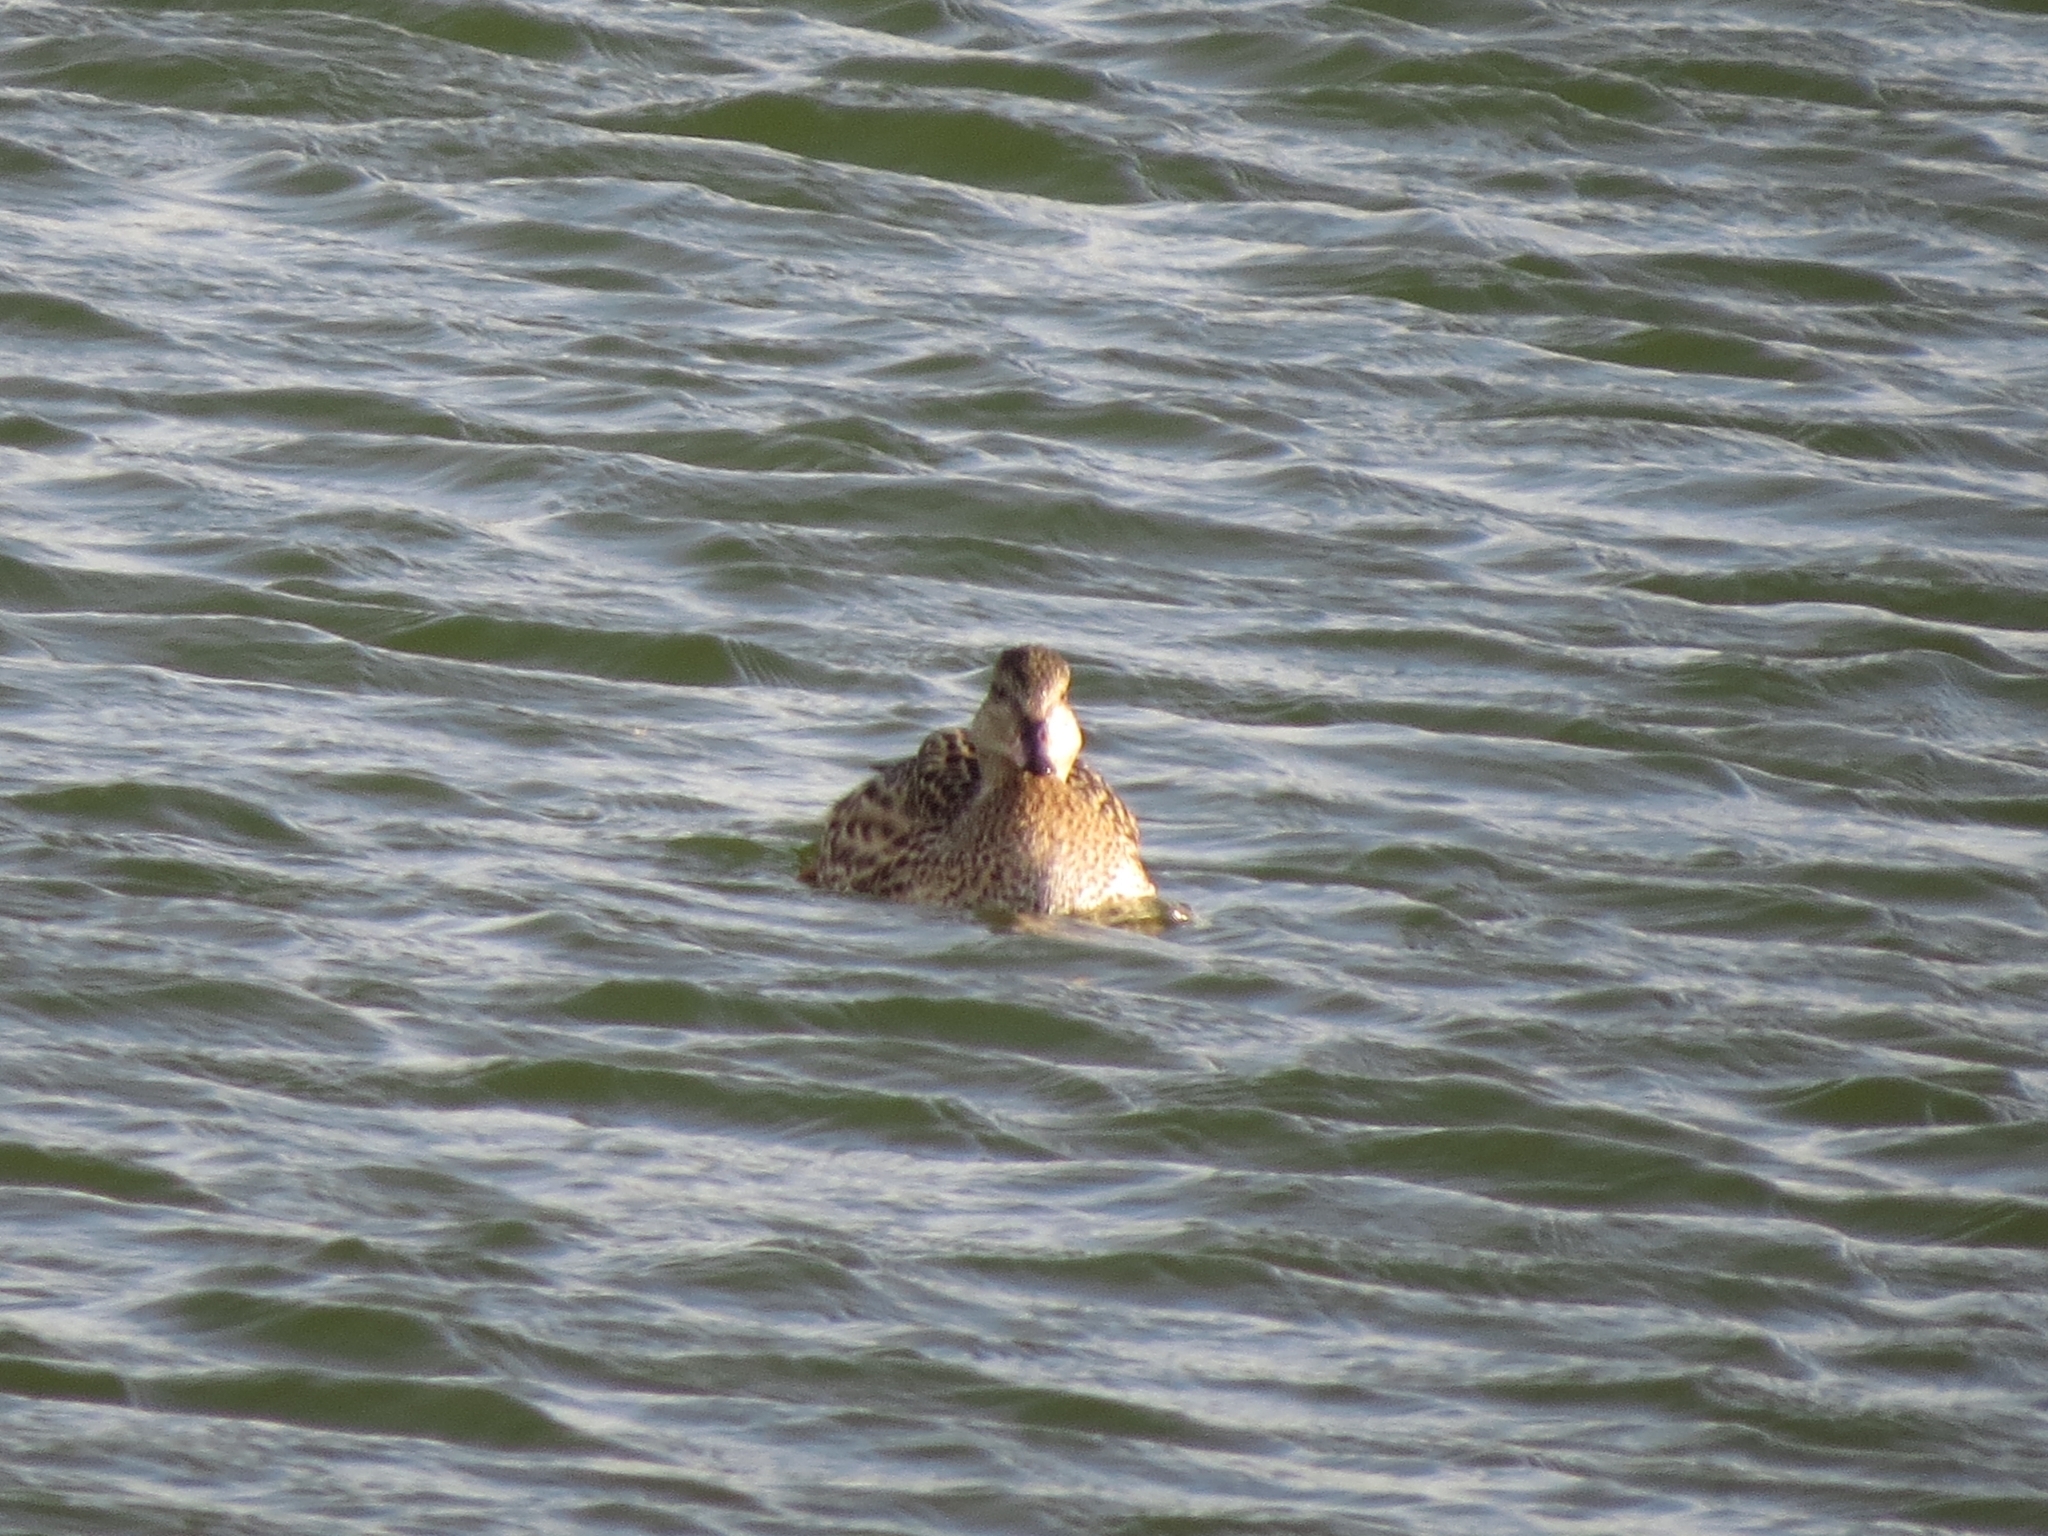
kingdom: Animalia
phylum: Chordata
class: Aves
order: Anseriformes
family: Anatidae
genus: Anas
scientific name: Anas platyrhynchos
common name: Mallard
